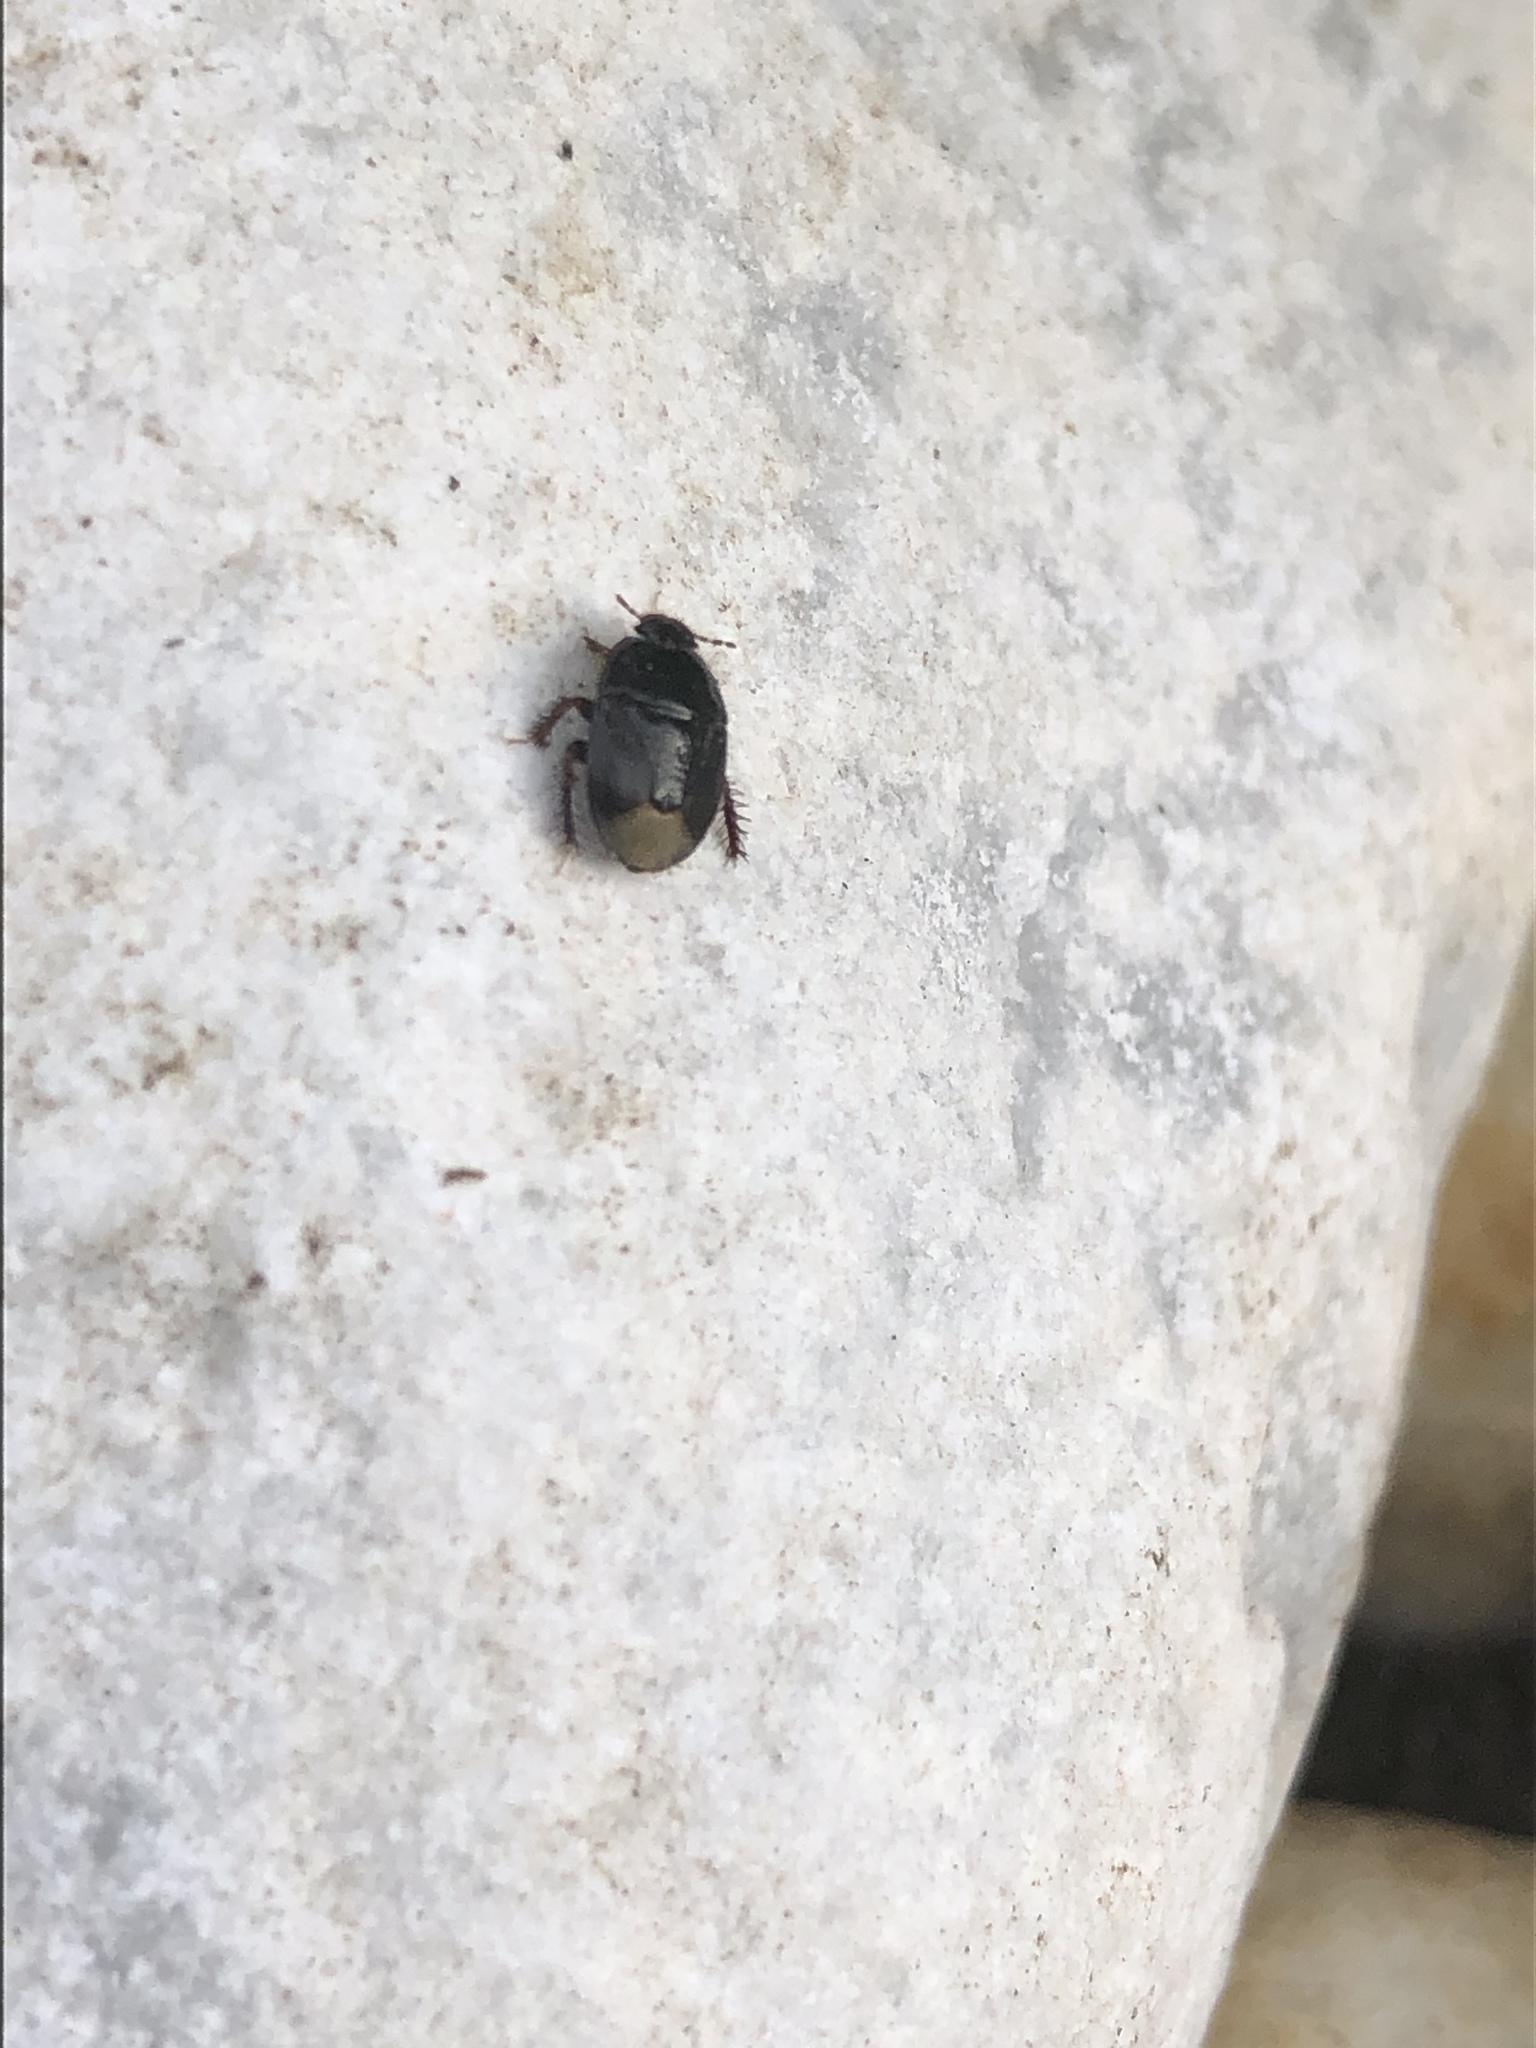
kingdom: Animalia
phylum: Arthropoda
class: Insecta
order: Hemiptera
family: Cydnidae
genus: Microporus
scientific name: Microporus nigrita
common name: Burrower bug
